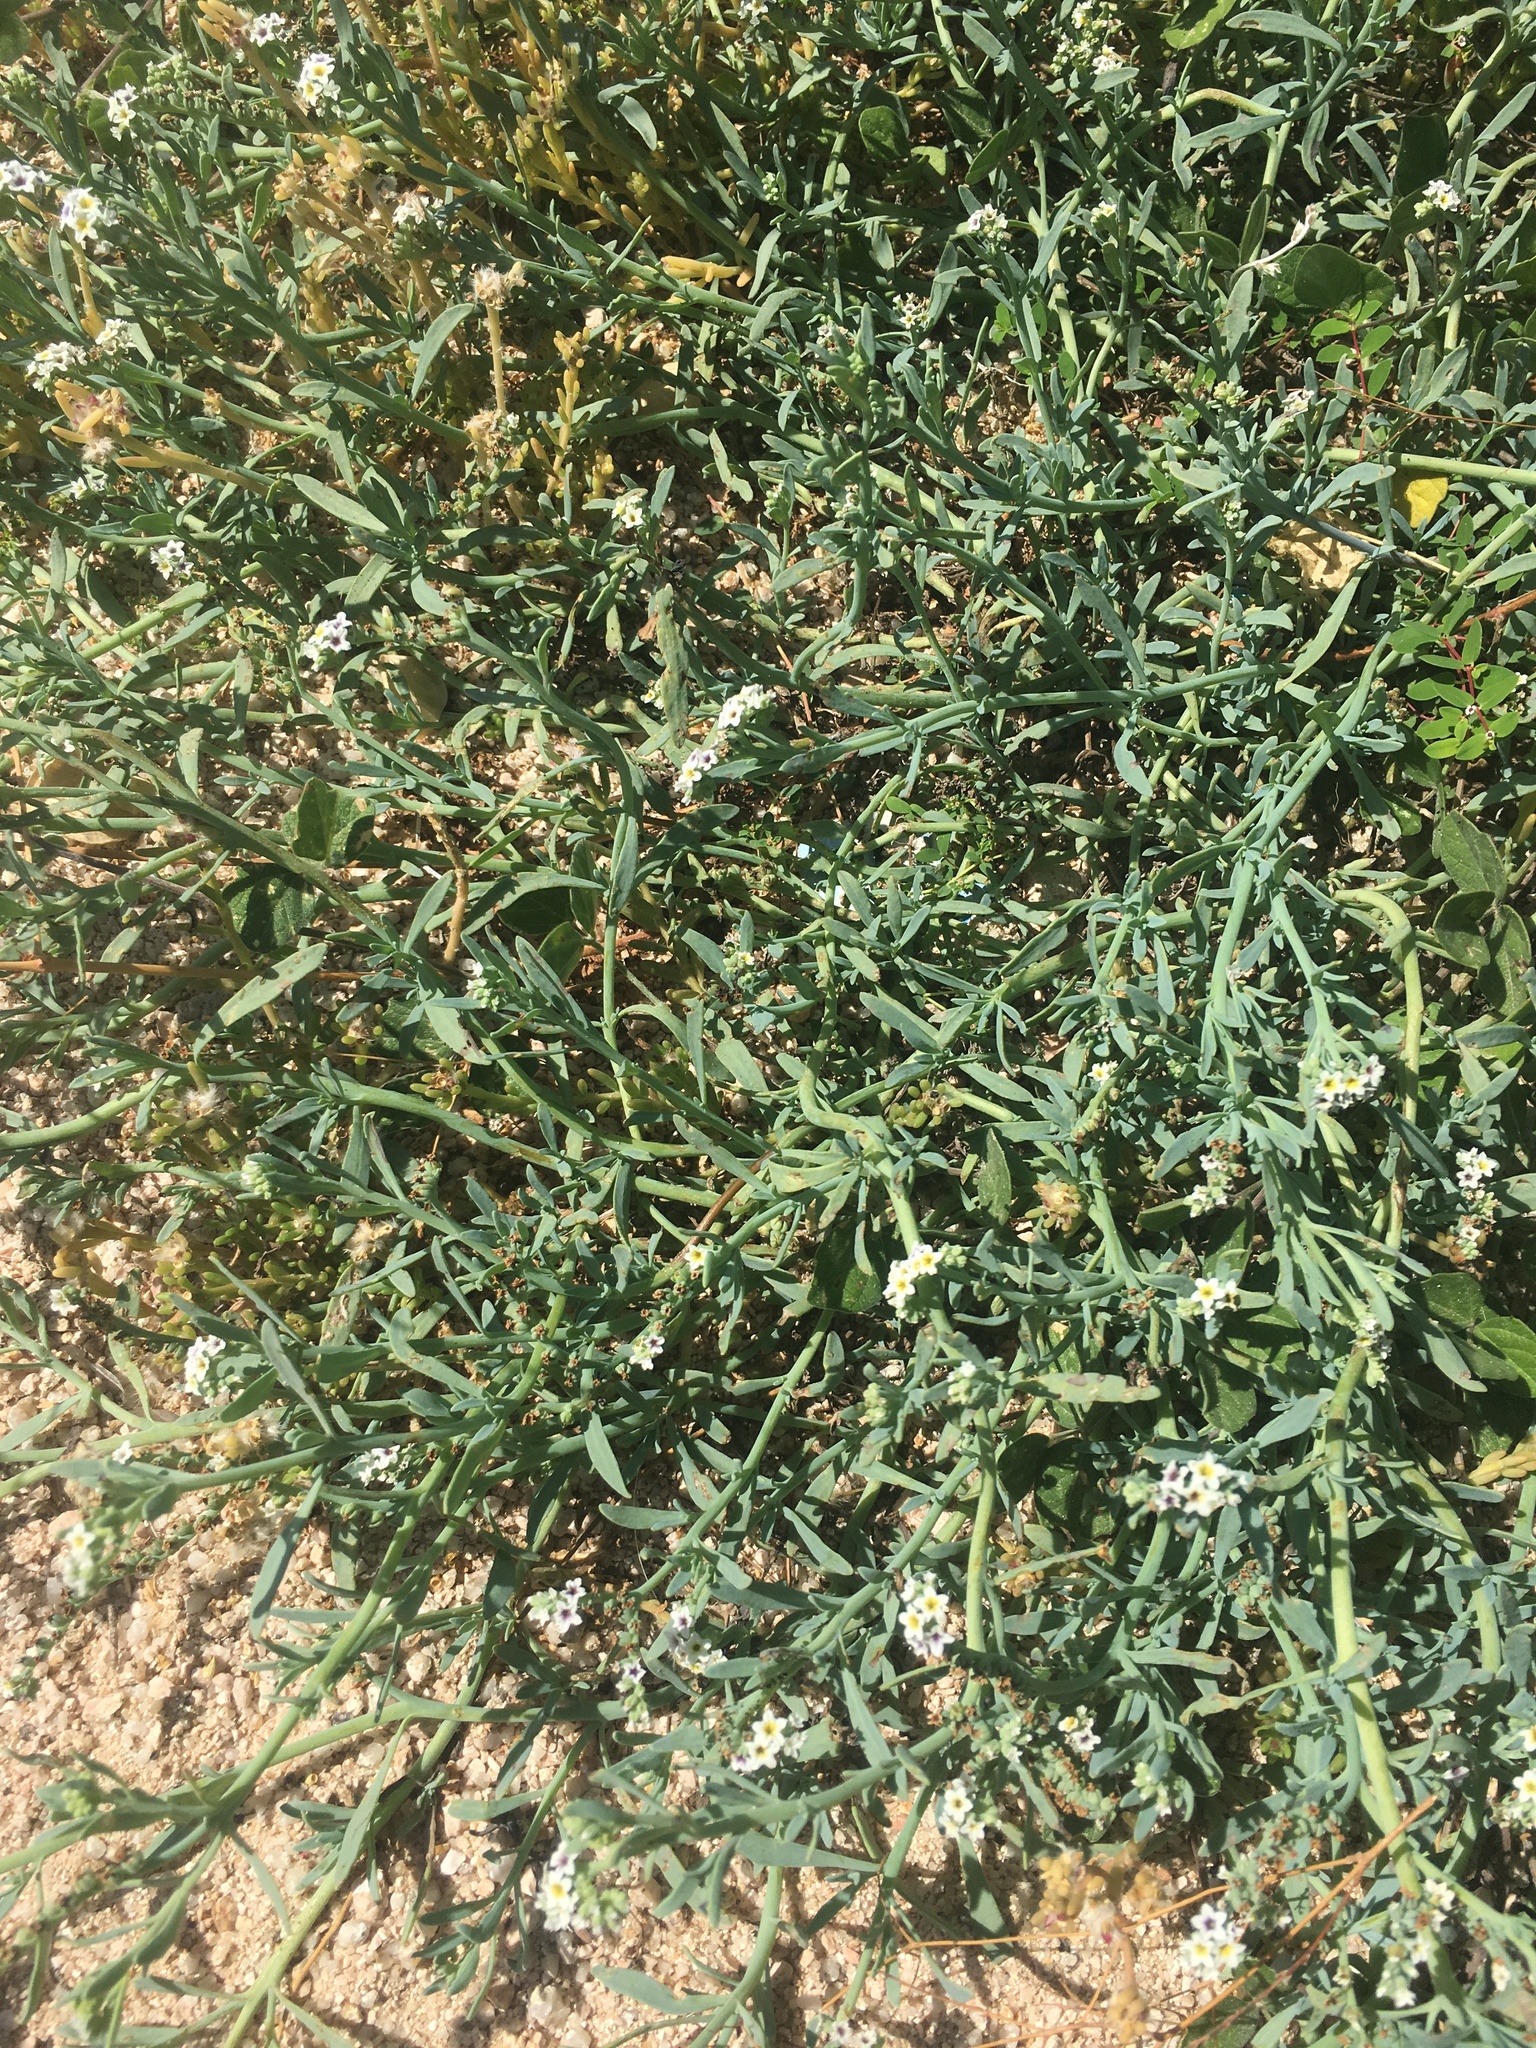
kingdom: Plantae
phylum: Tracheophyta
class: Magnoliopsida
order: Boraginales
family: Heliotropiaceae
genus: Heliotropium
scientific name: Heliotropium curassavicum
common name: Seaside heliotrope
